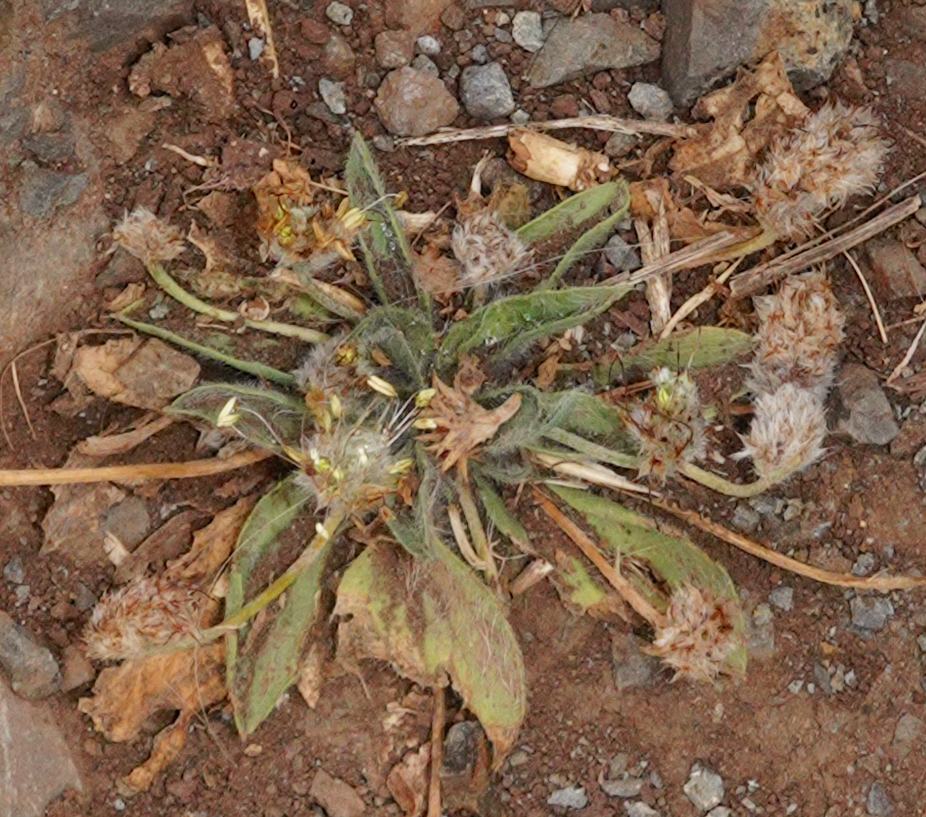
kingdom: Plantae
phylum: Tracheophyta
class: Magnoliopsida
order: Lamiales
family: Plantaginaceae
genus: Plantago
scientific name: Plantago lagopus
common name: Hare-foot plantain
